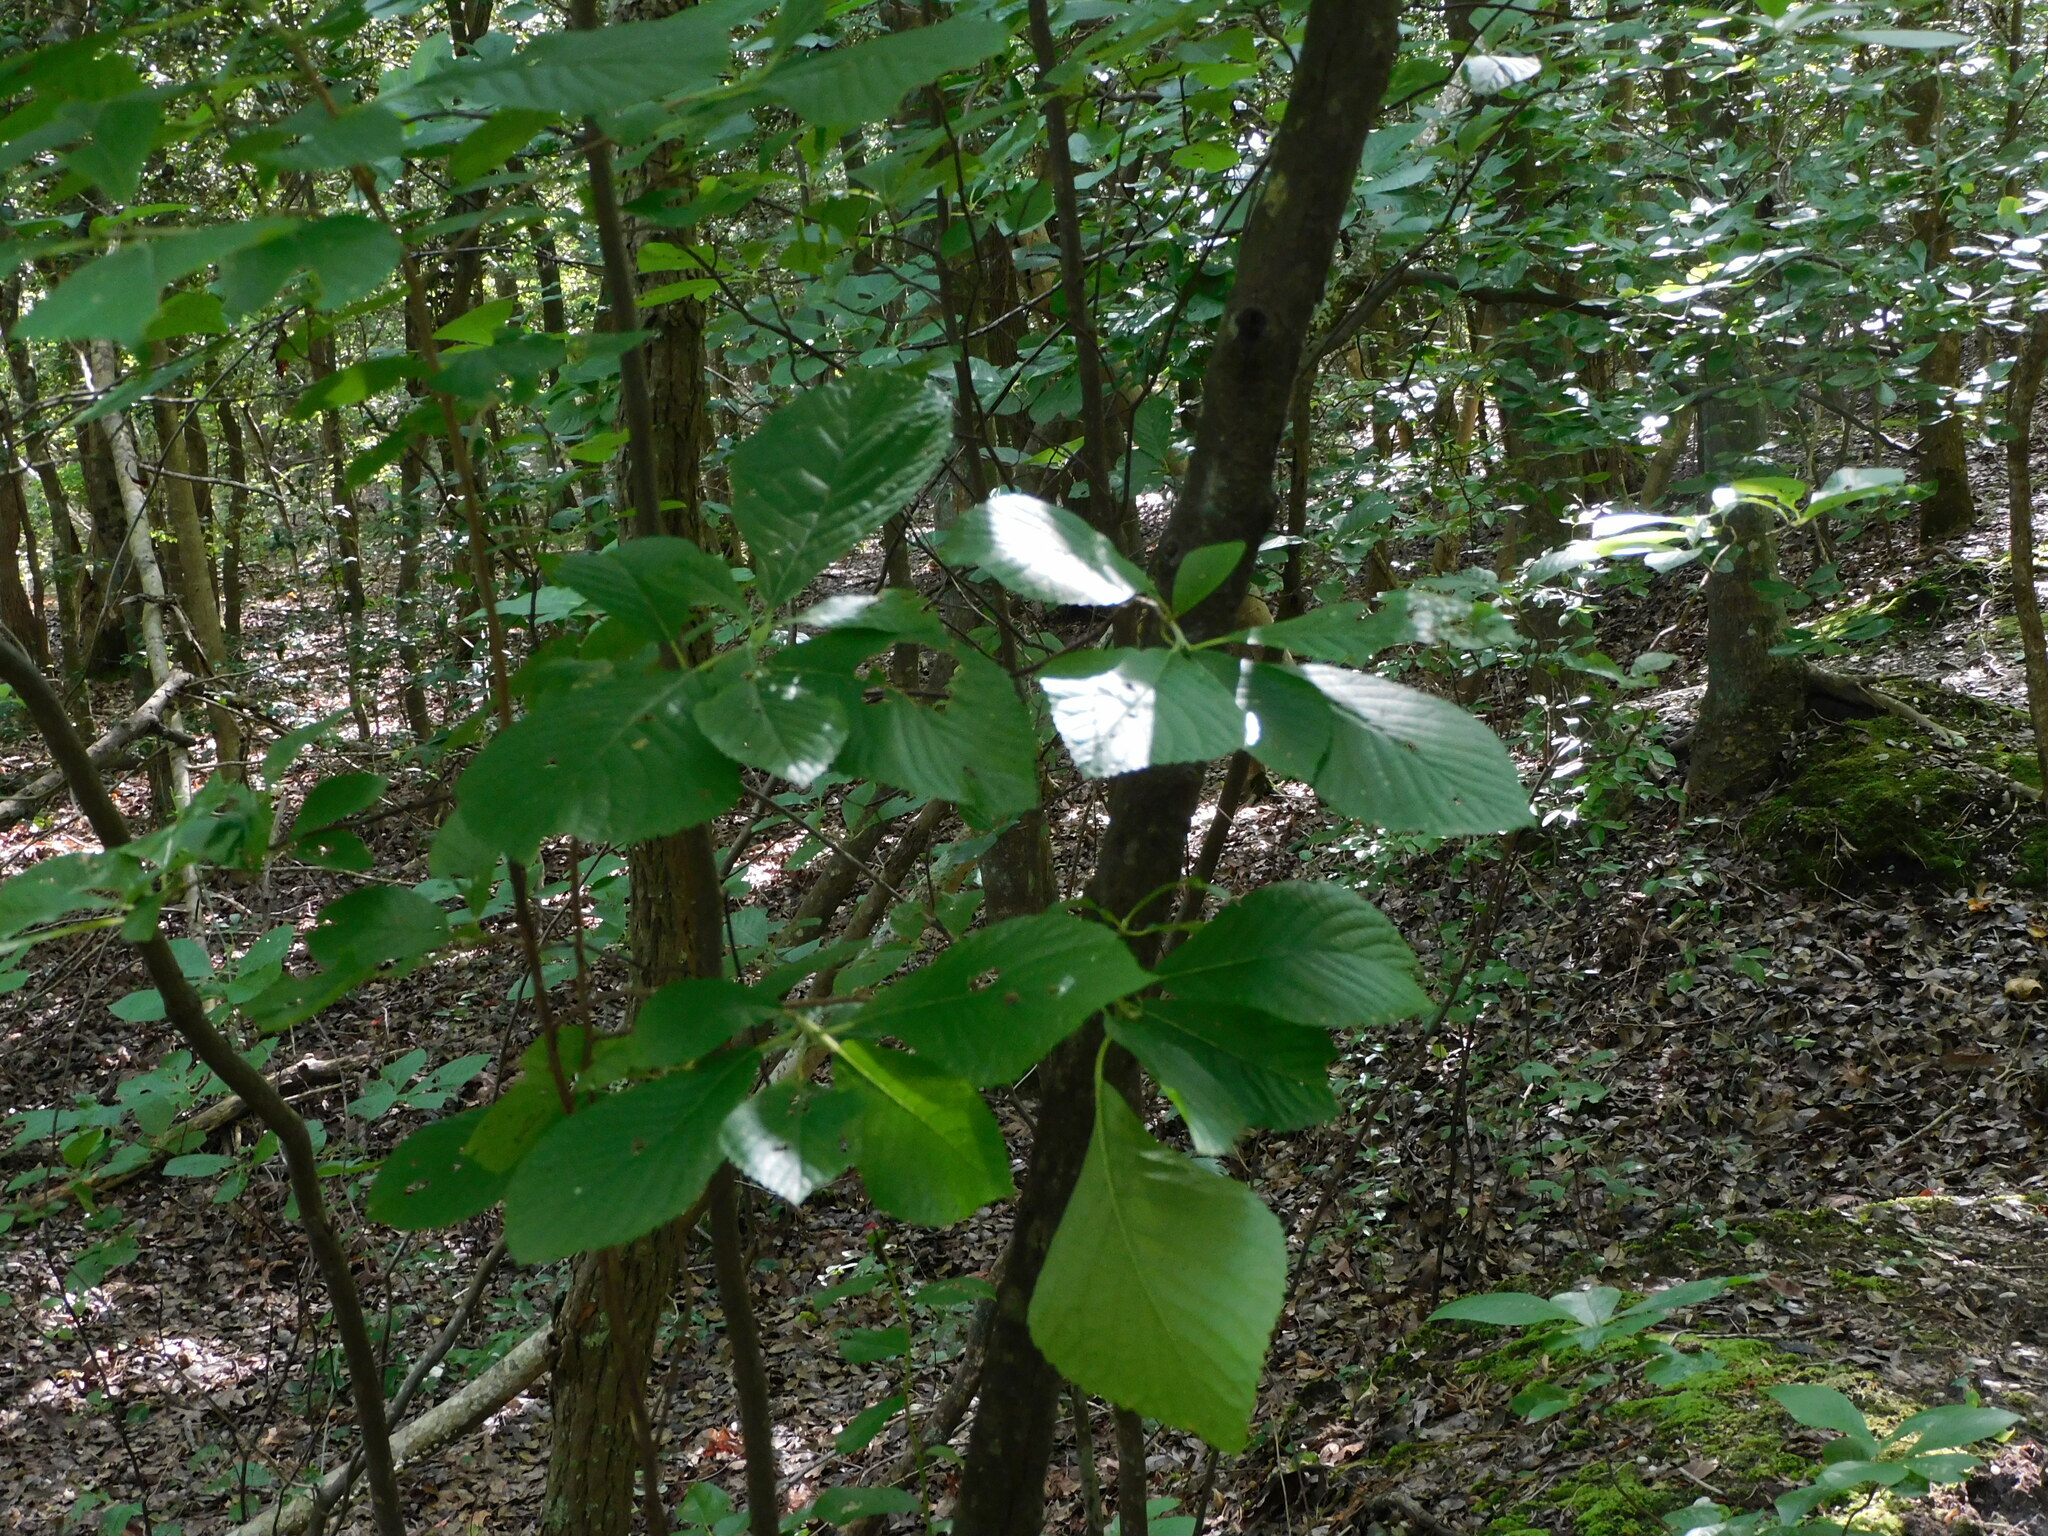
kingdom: Plantae
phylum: Tracheophyta
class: Magnoliopsida
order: Ericales
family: Clethraceae
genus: Clethra
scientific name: Clethra alnifolia
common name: Sweet pepperbush
